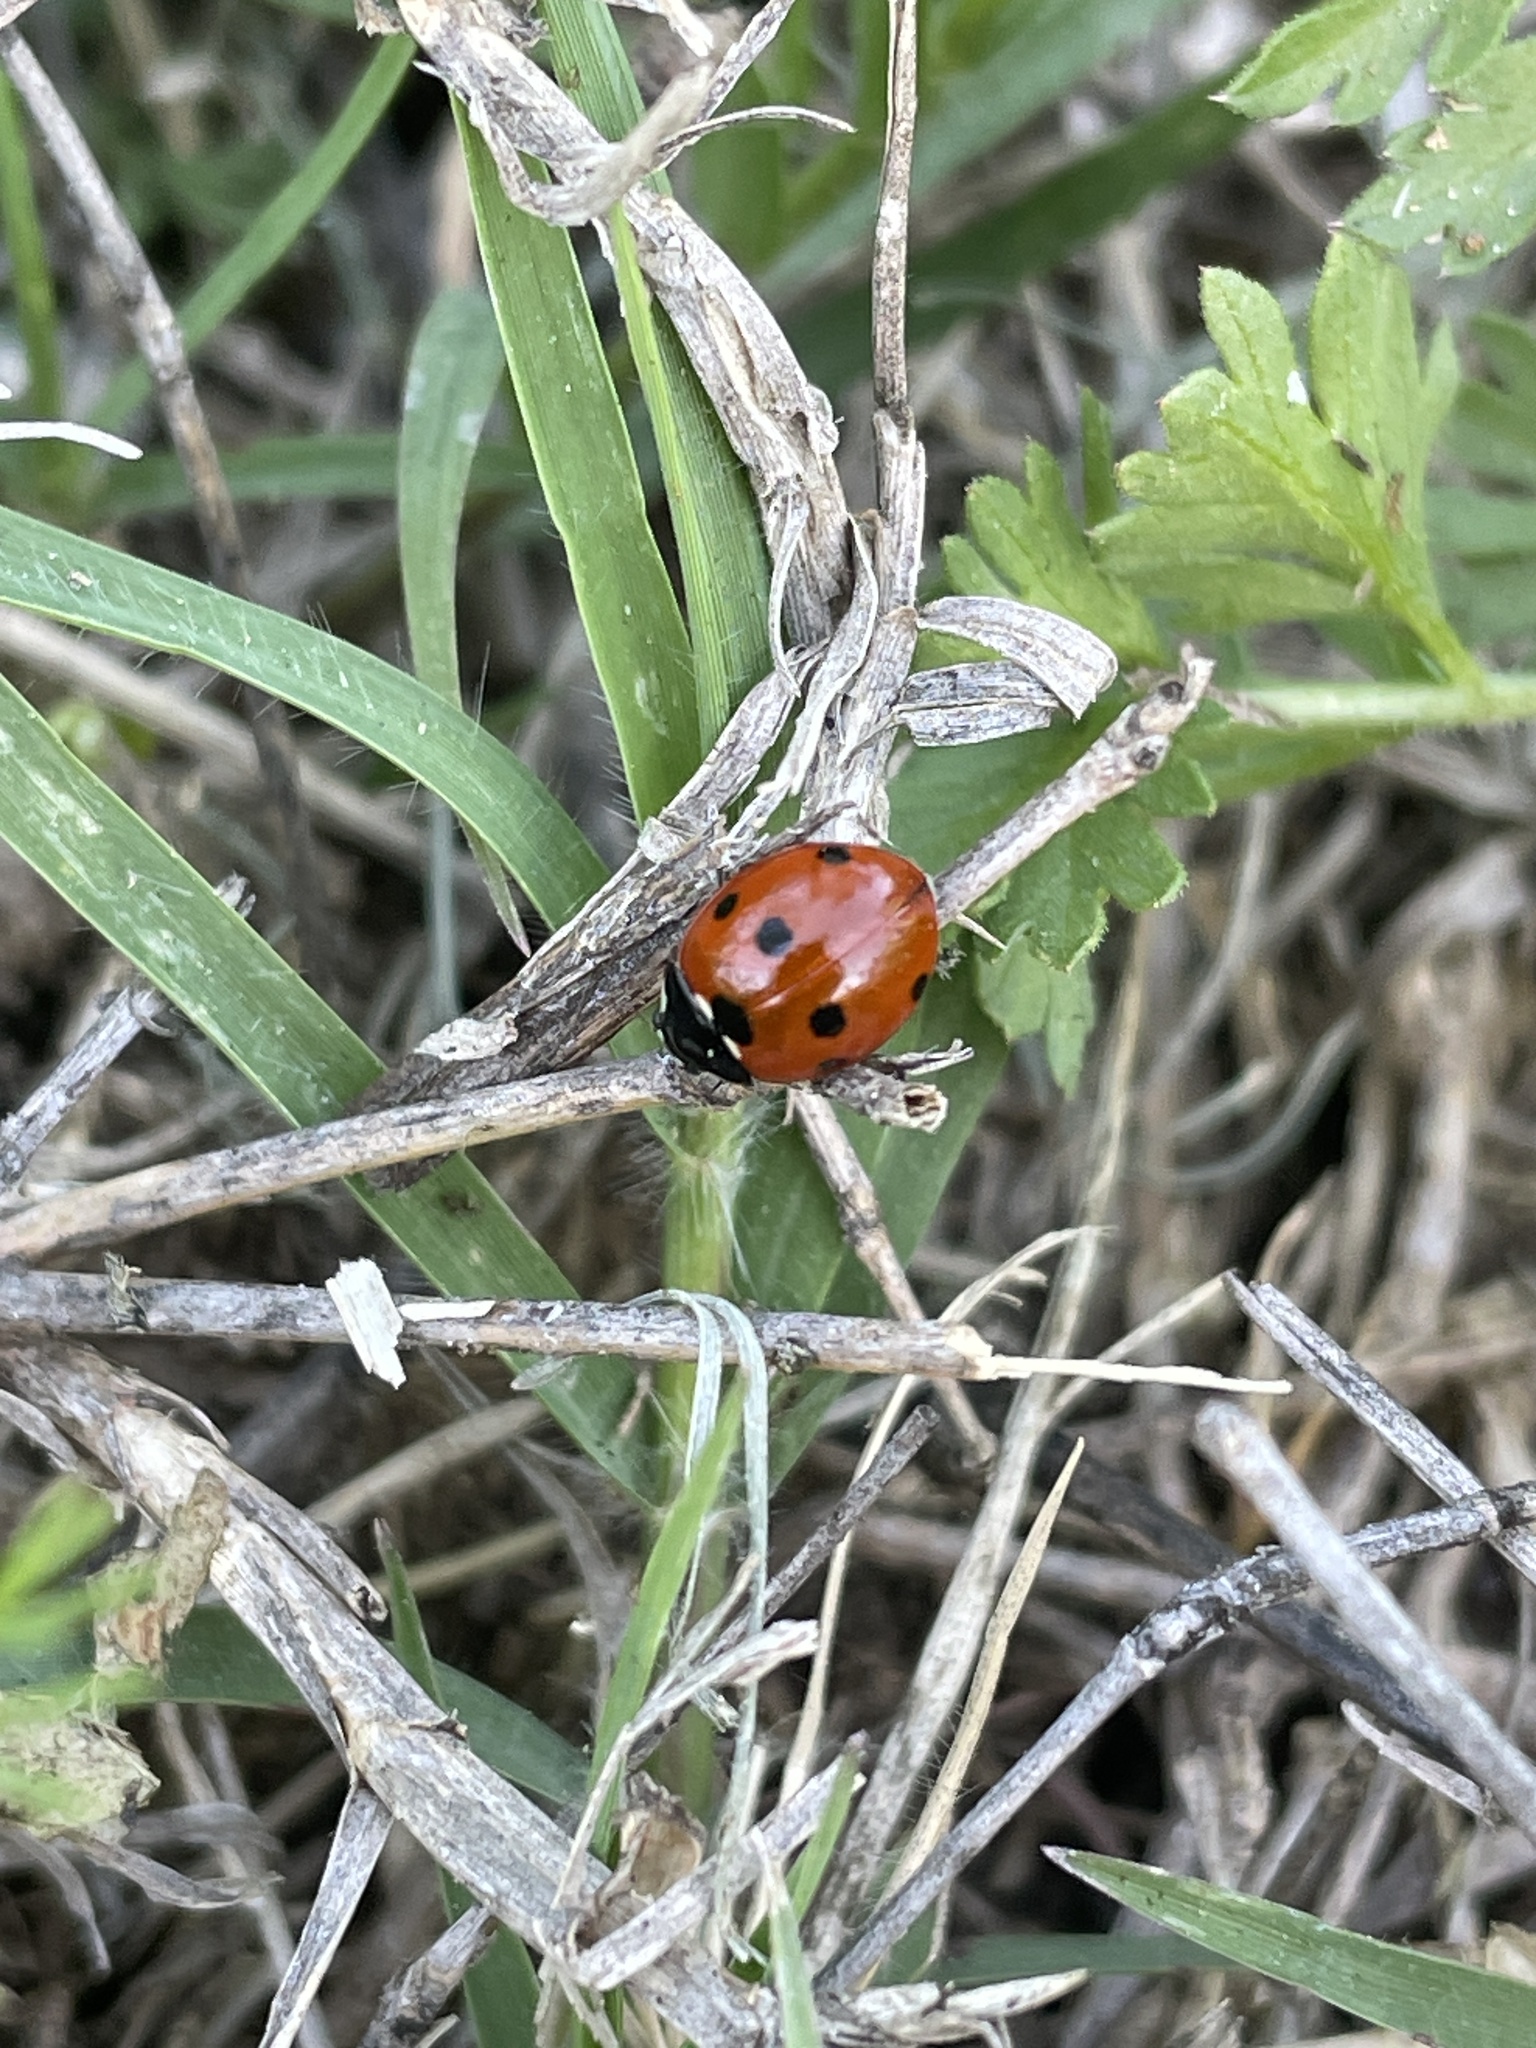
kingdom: Animalia
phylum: Arthropoda
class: Insecta
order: Coleoptera
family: Coccinellidae
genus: Coccinella
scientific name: Coccinella septempunctata
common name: Sevenspotted lady beetle
